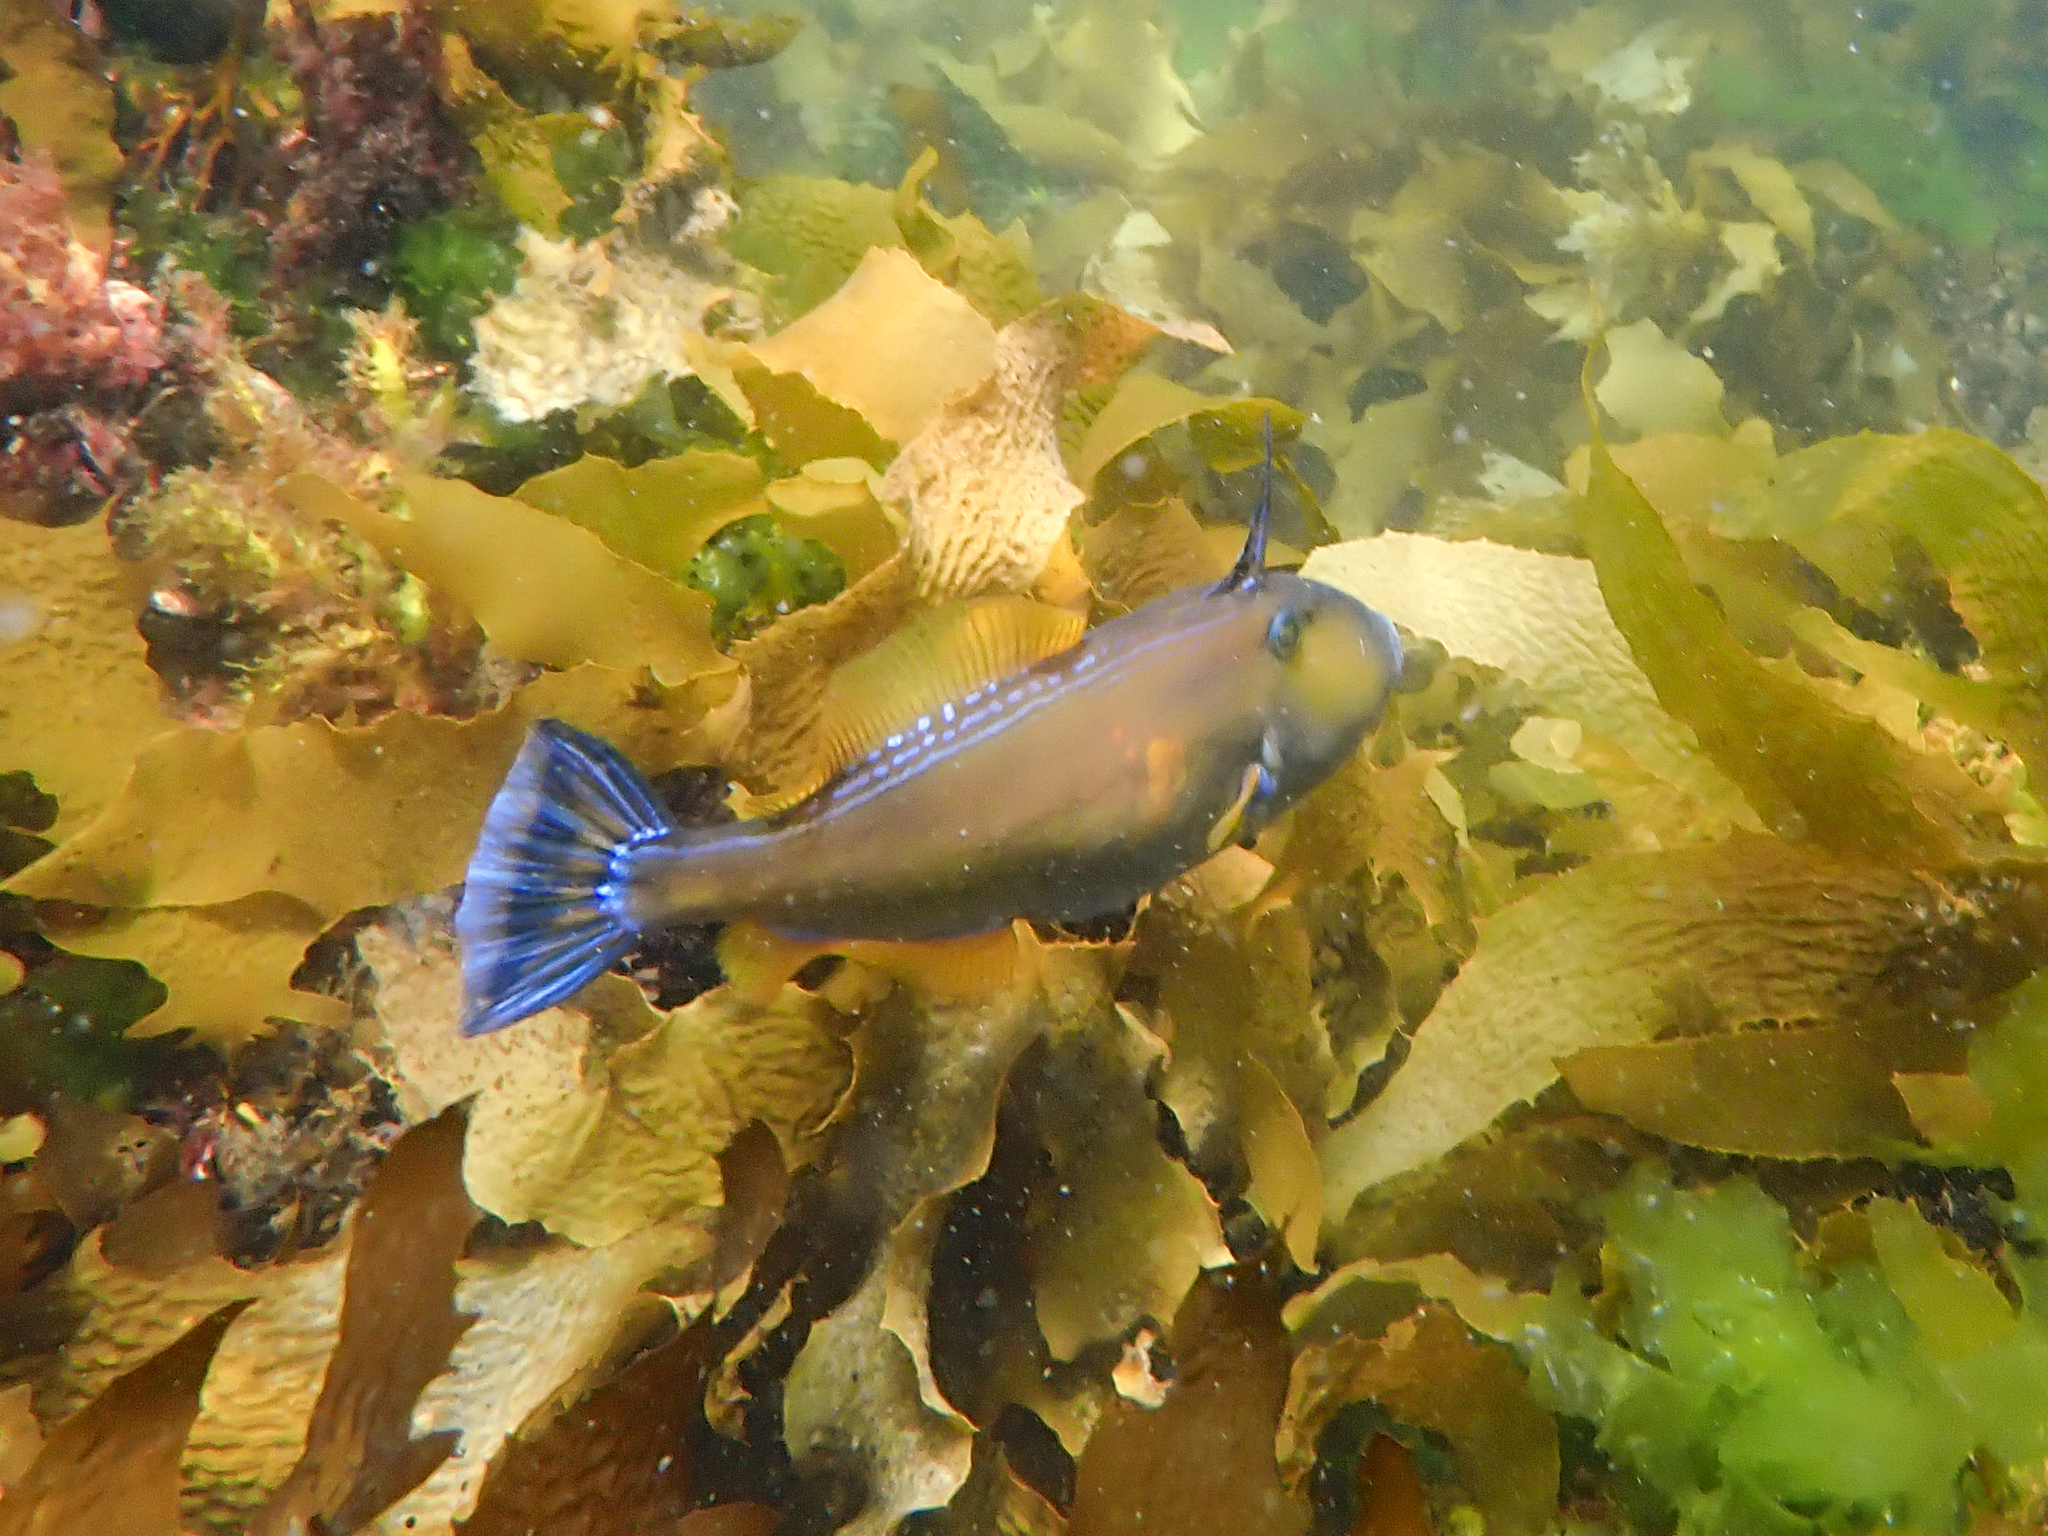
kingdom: Animalia
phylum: Chordata
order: Tetraodontiformes
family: Monacanthidae
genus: Meuschenia
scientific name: Meuschenia freycineti
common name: Freycinet's leatherjacket
